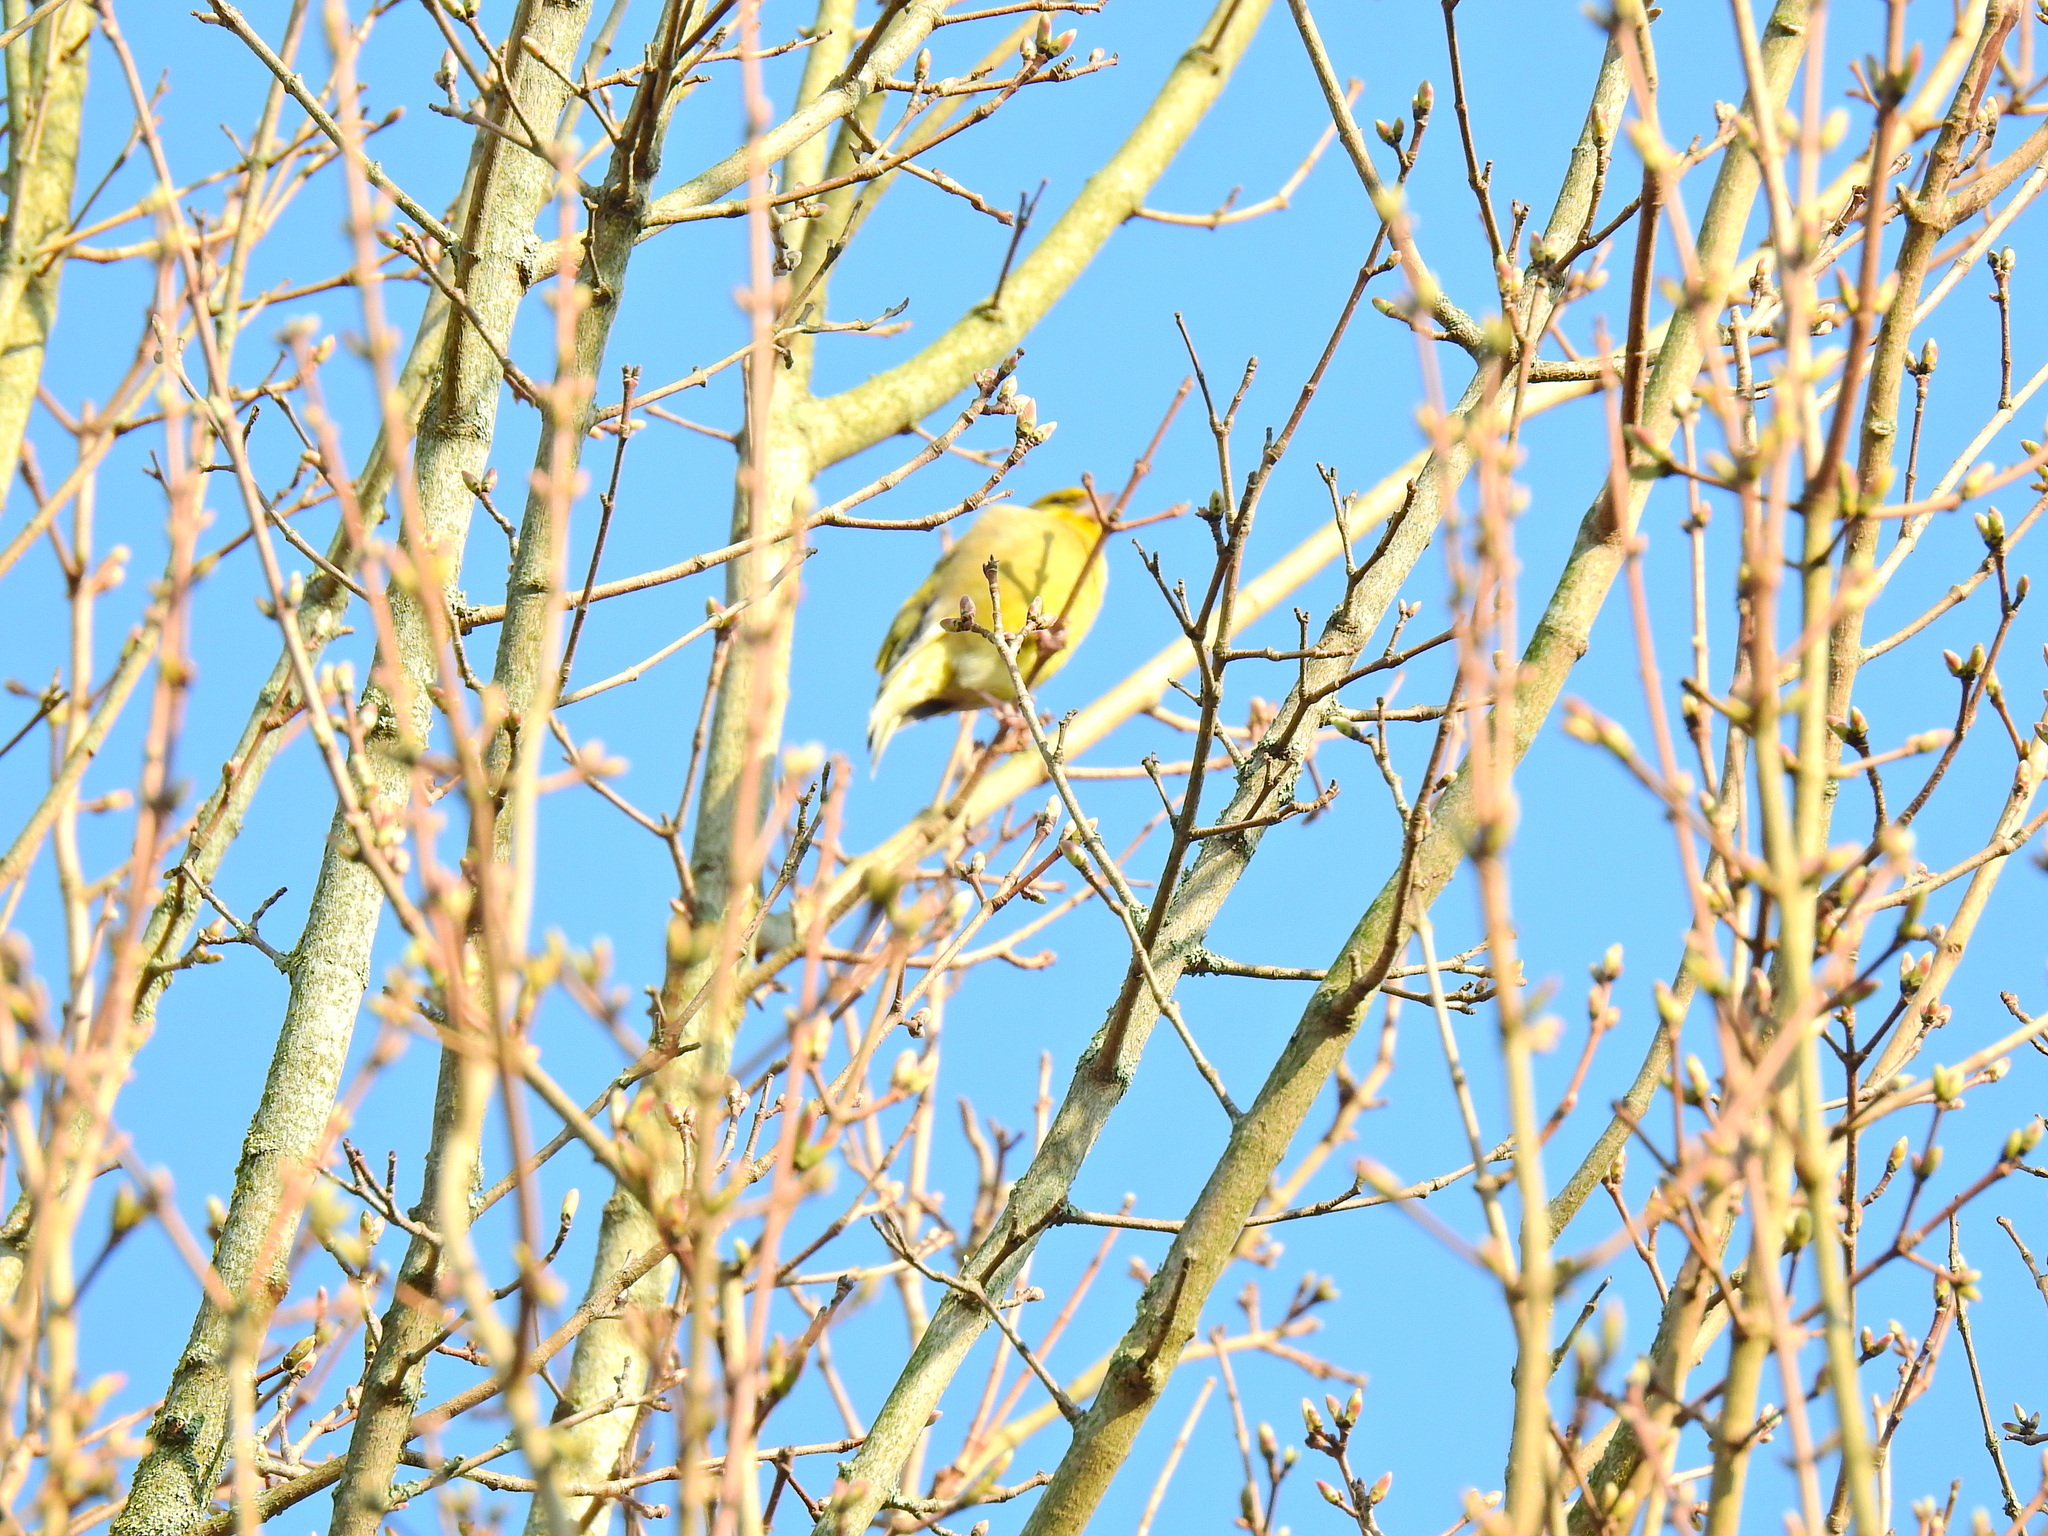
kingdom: Plantae
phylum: Tracheophyta
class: Liliopsida
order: Poales
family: Poaceae
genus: Chloris
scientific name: Chloris chloris
